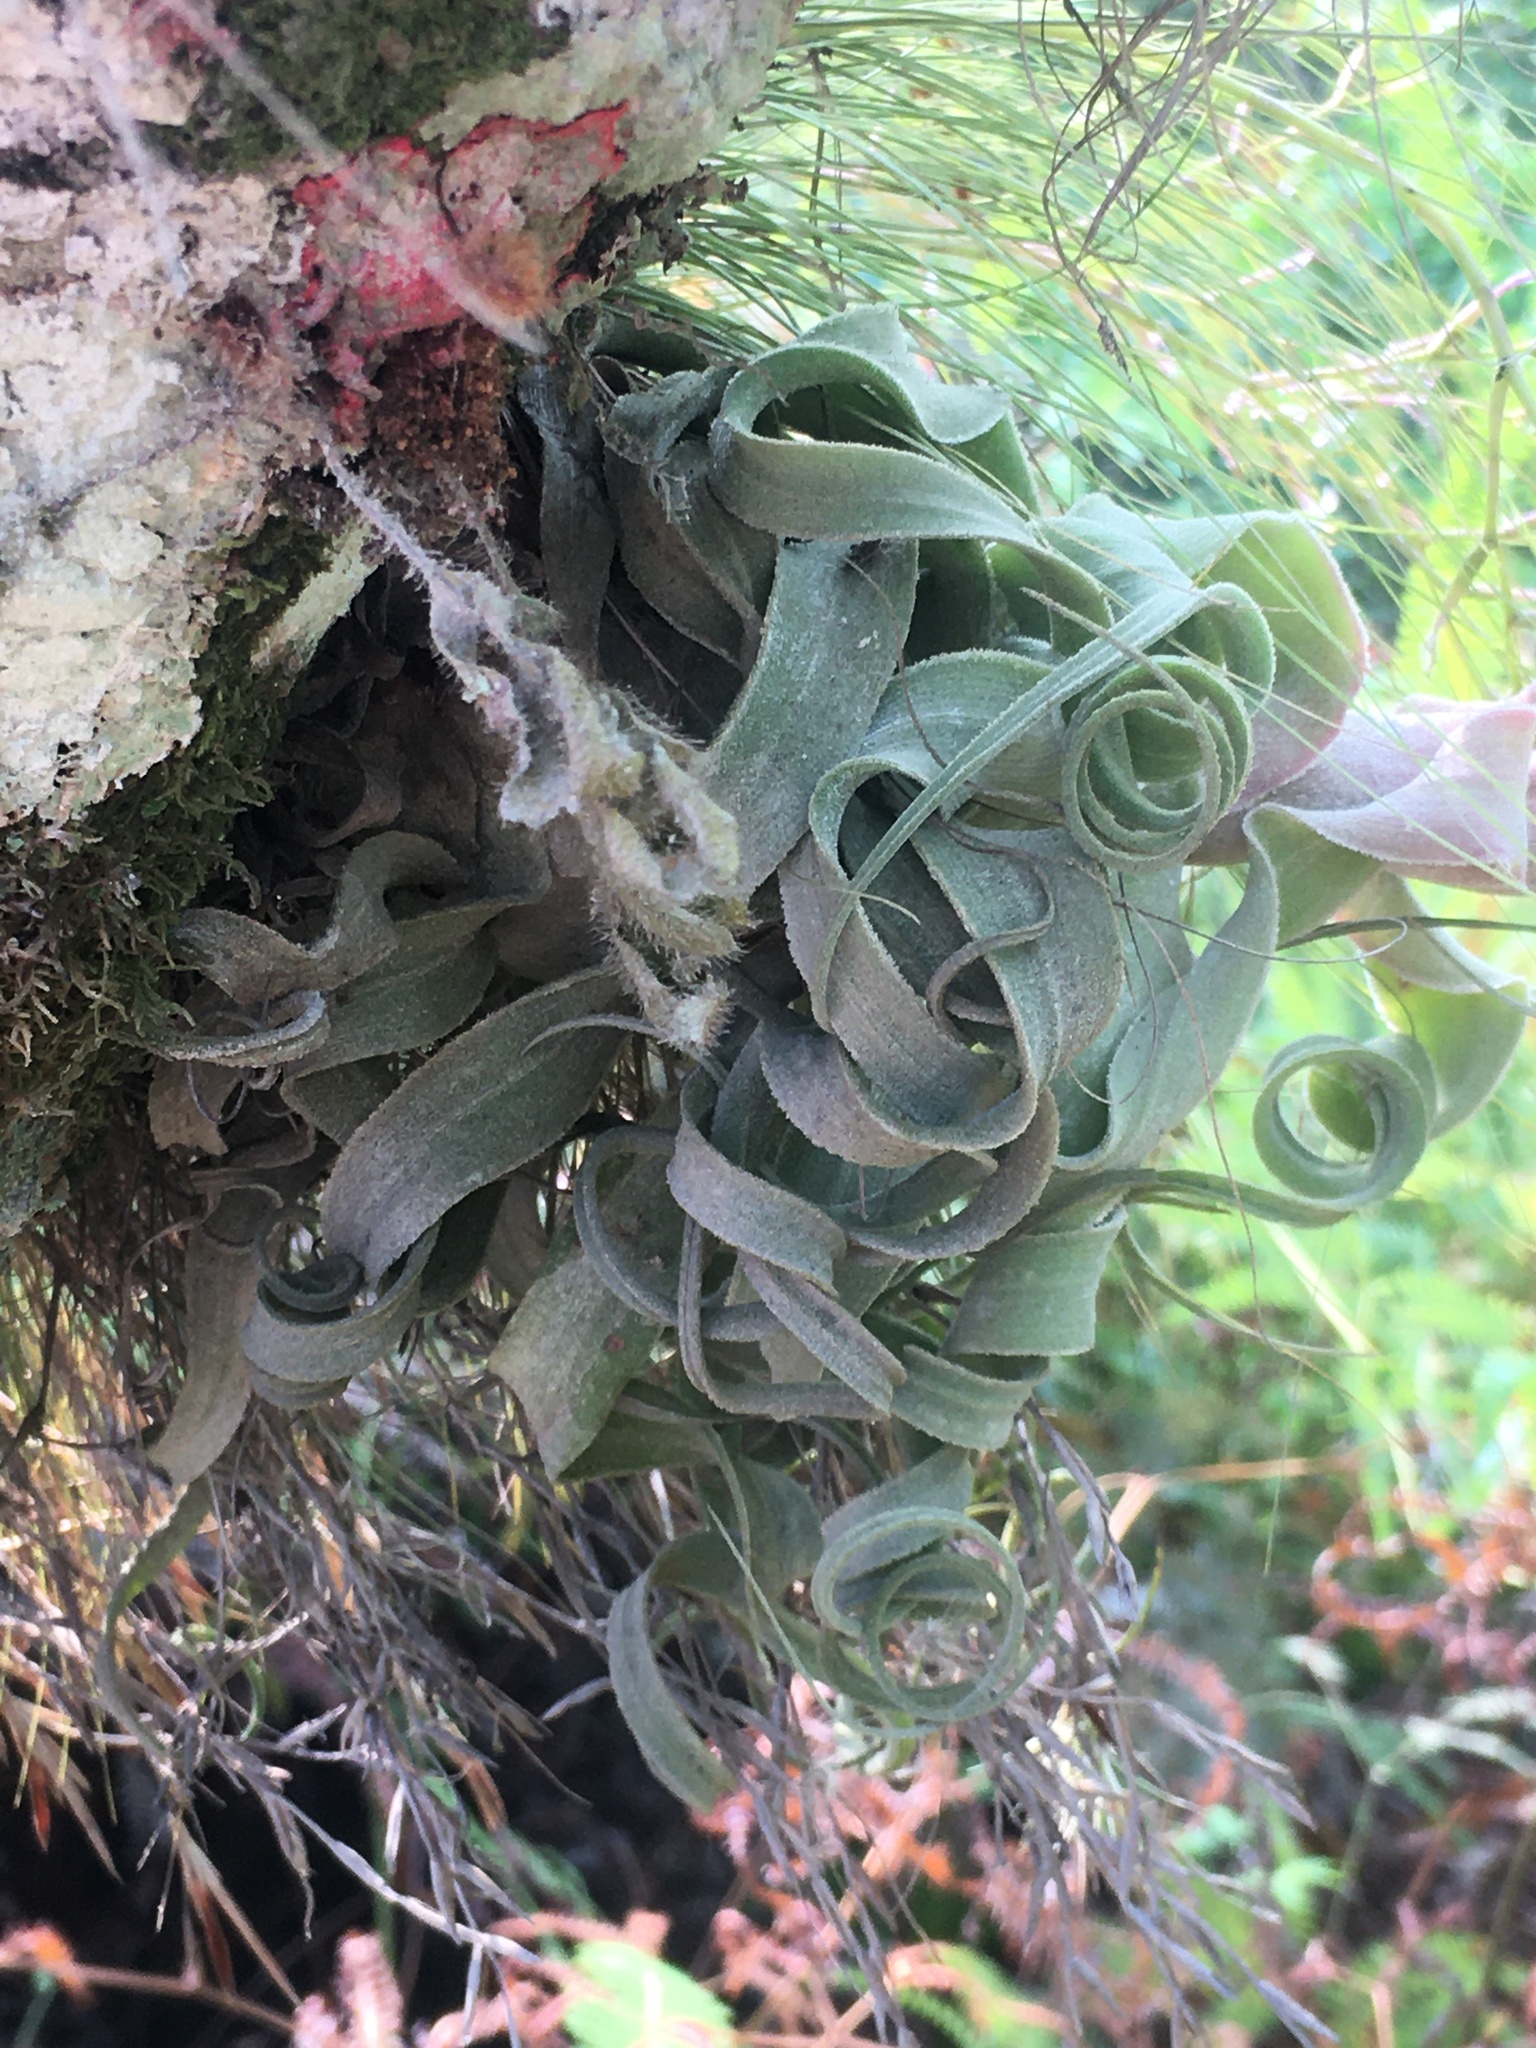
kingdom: Plantae
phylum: Tracheophyta
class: Liliopsida
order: Poales
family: Bromeliaceae
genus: Tillandsia
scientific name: Tillandsia streptophylla
